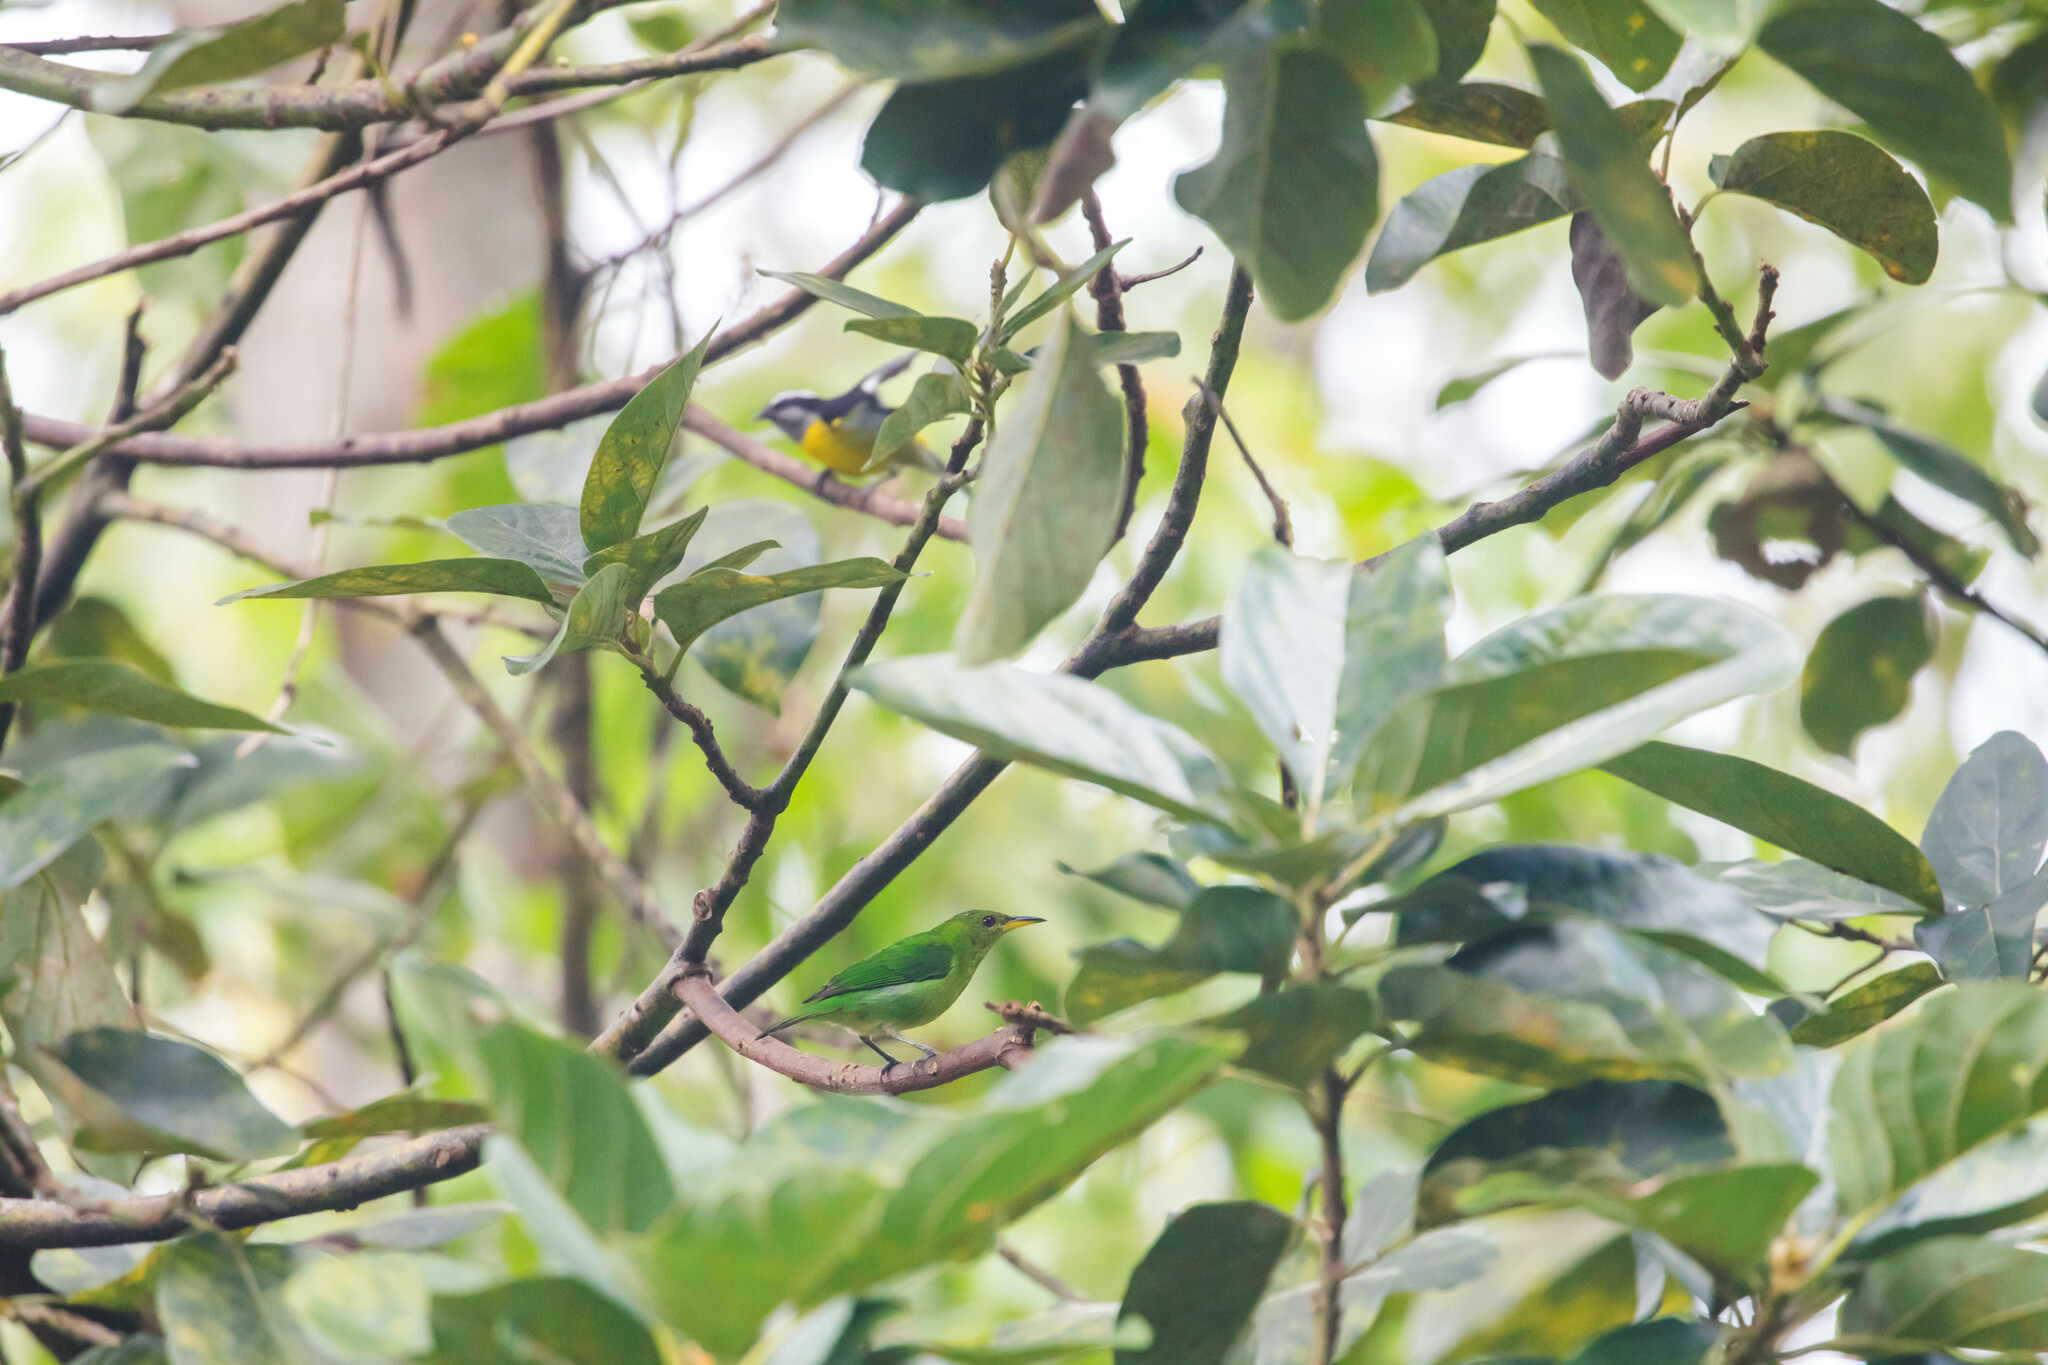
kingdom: Animalia
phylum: Chordata
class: Aves
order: Passeriformes
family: Thraupidae
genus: Chlorophanes
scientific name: Chlorophanes spiza
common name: Green honeycreeper
